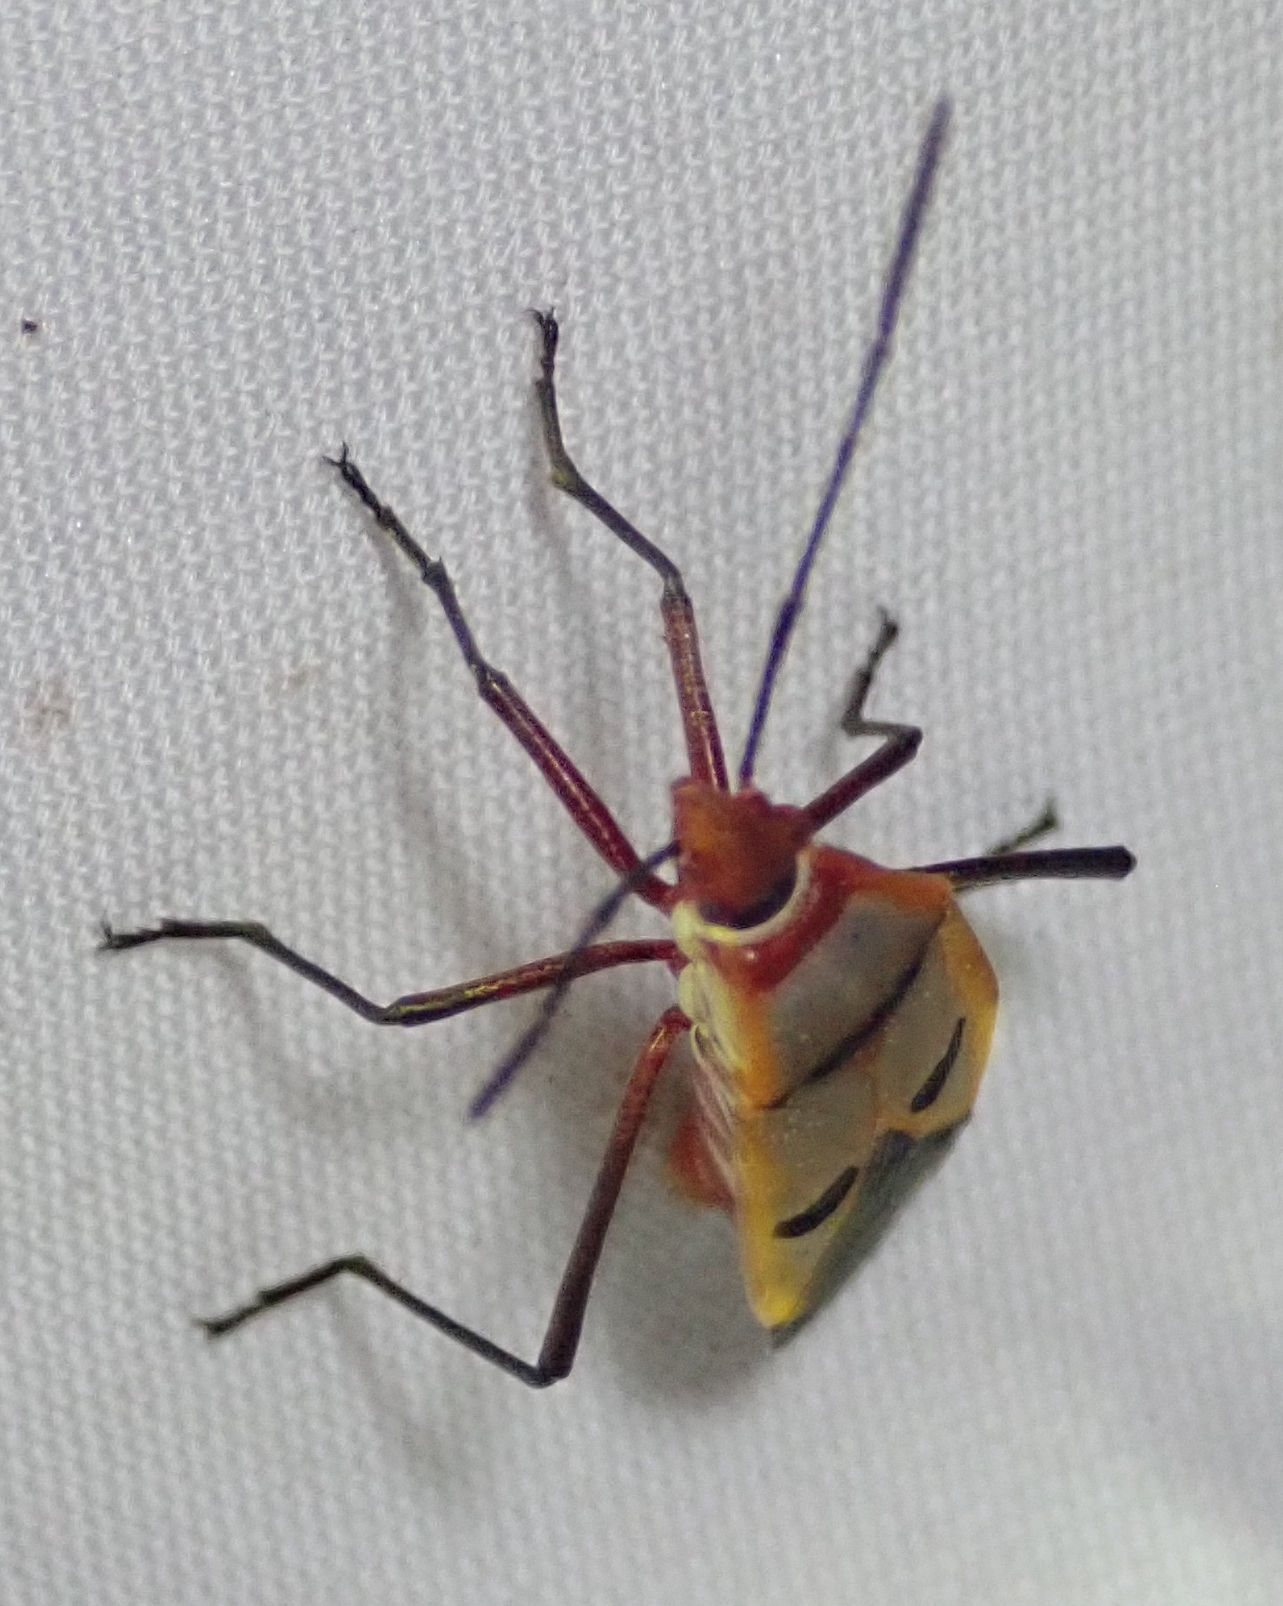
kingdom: Animalia
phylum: Arthropoda
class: Insecta
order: Hemiptera
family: Pyrrhocoridae
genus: Dysdercus
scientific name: Dysdercus superstitiosus
